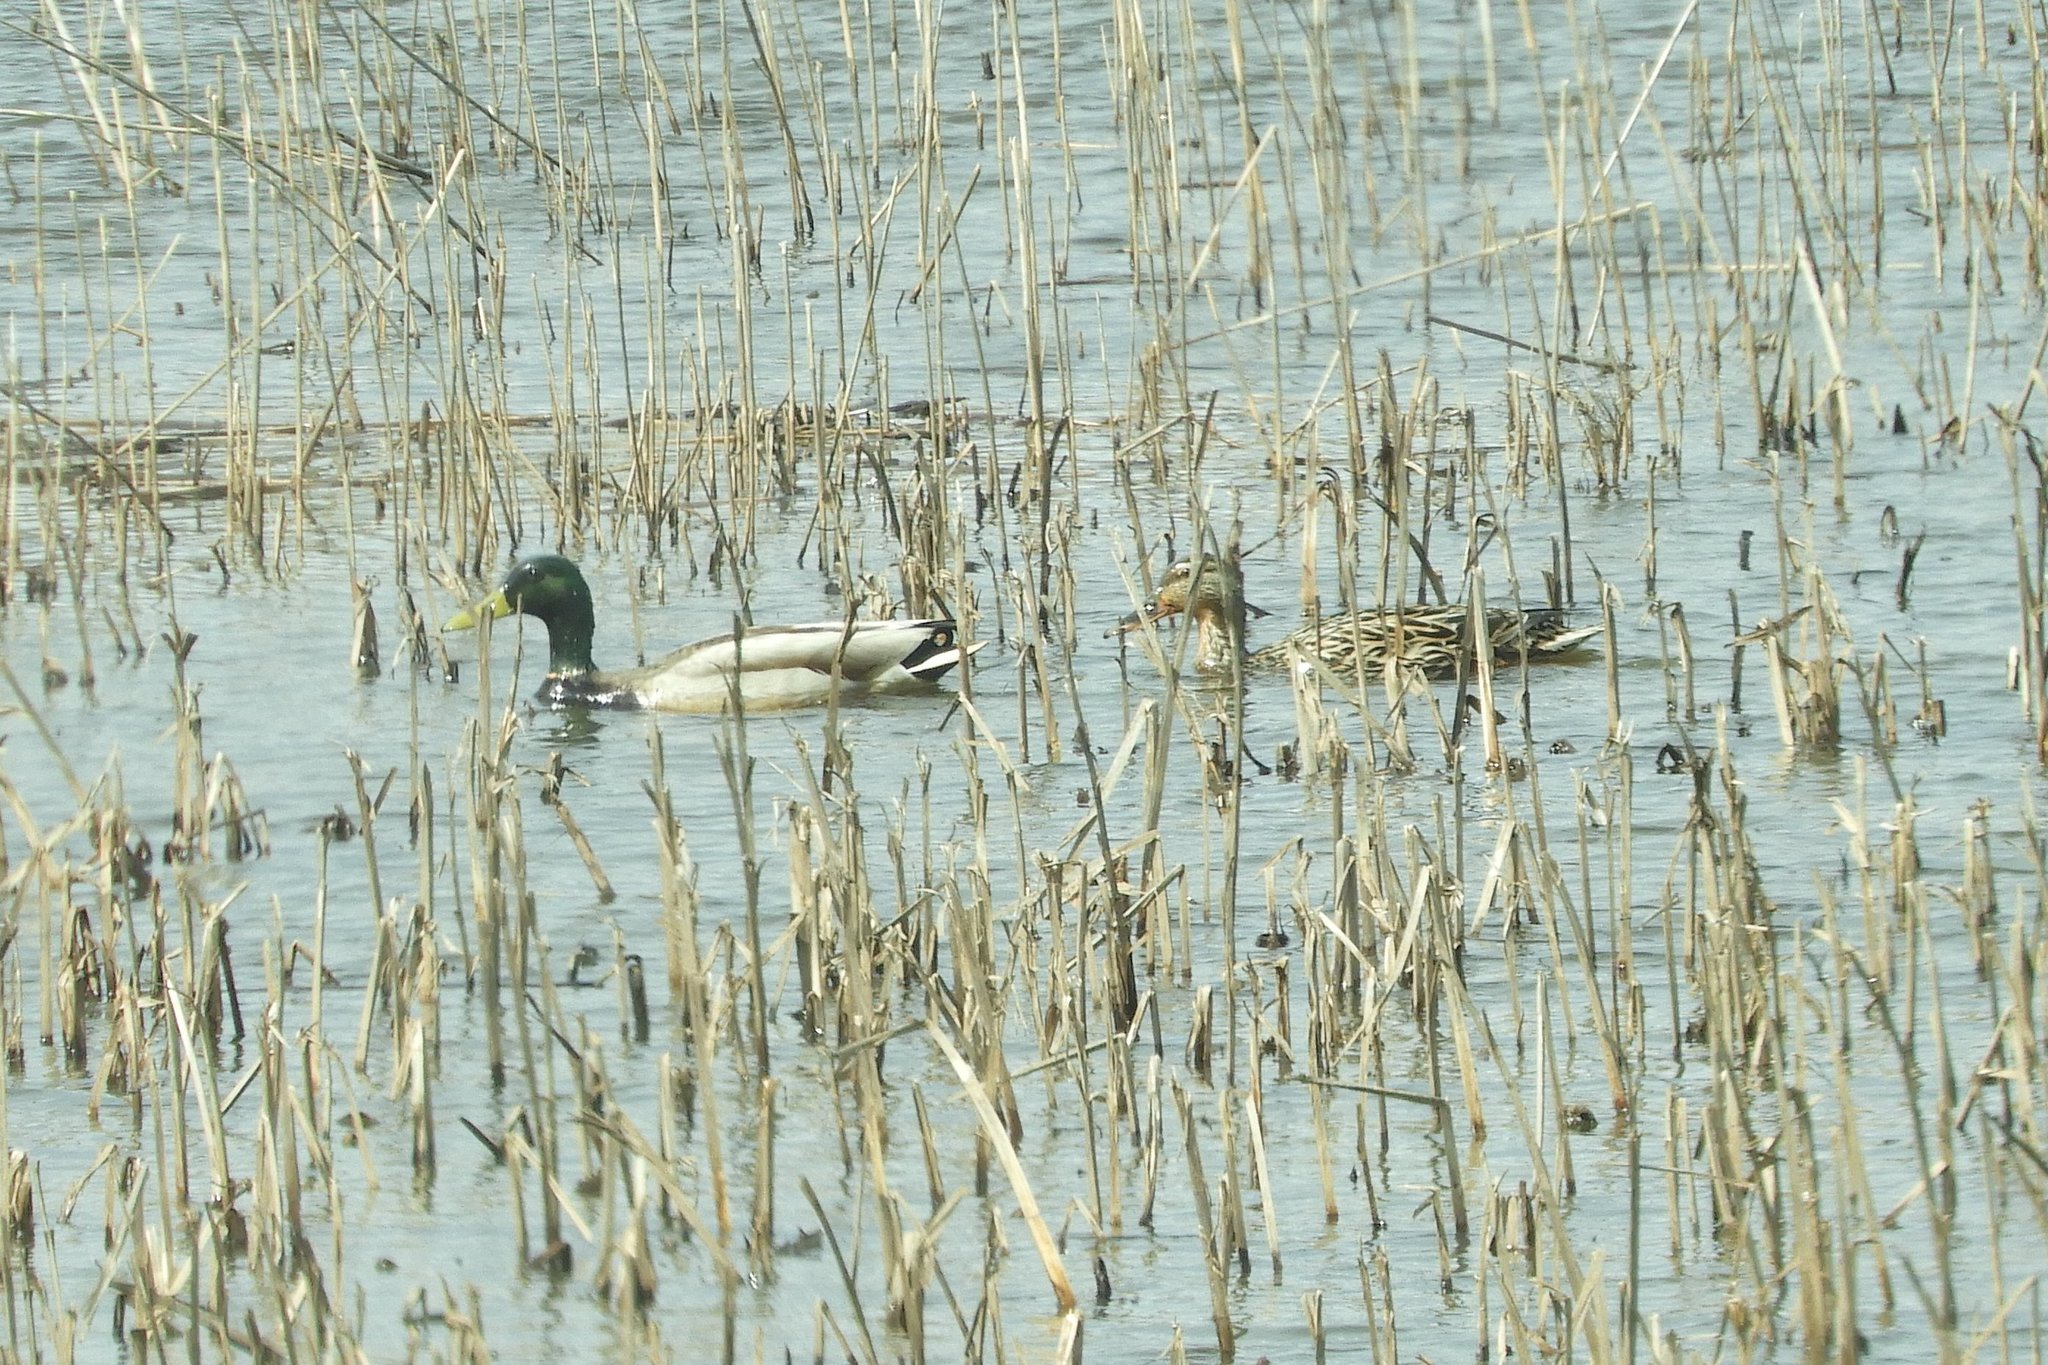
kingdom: Animalia
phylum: Chordata
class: Aves
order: Anseriformes
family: Anatidae
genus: Anas
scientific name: Anas platyrhynchos
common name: Mallard
